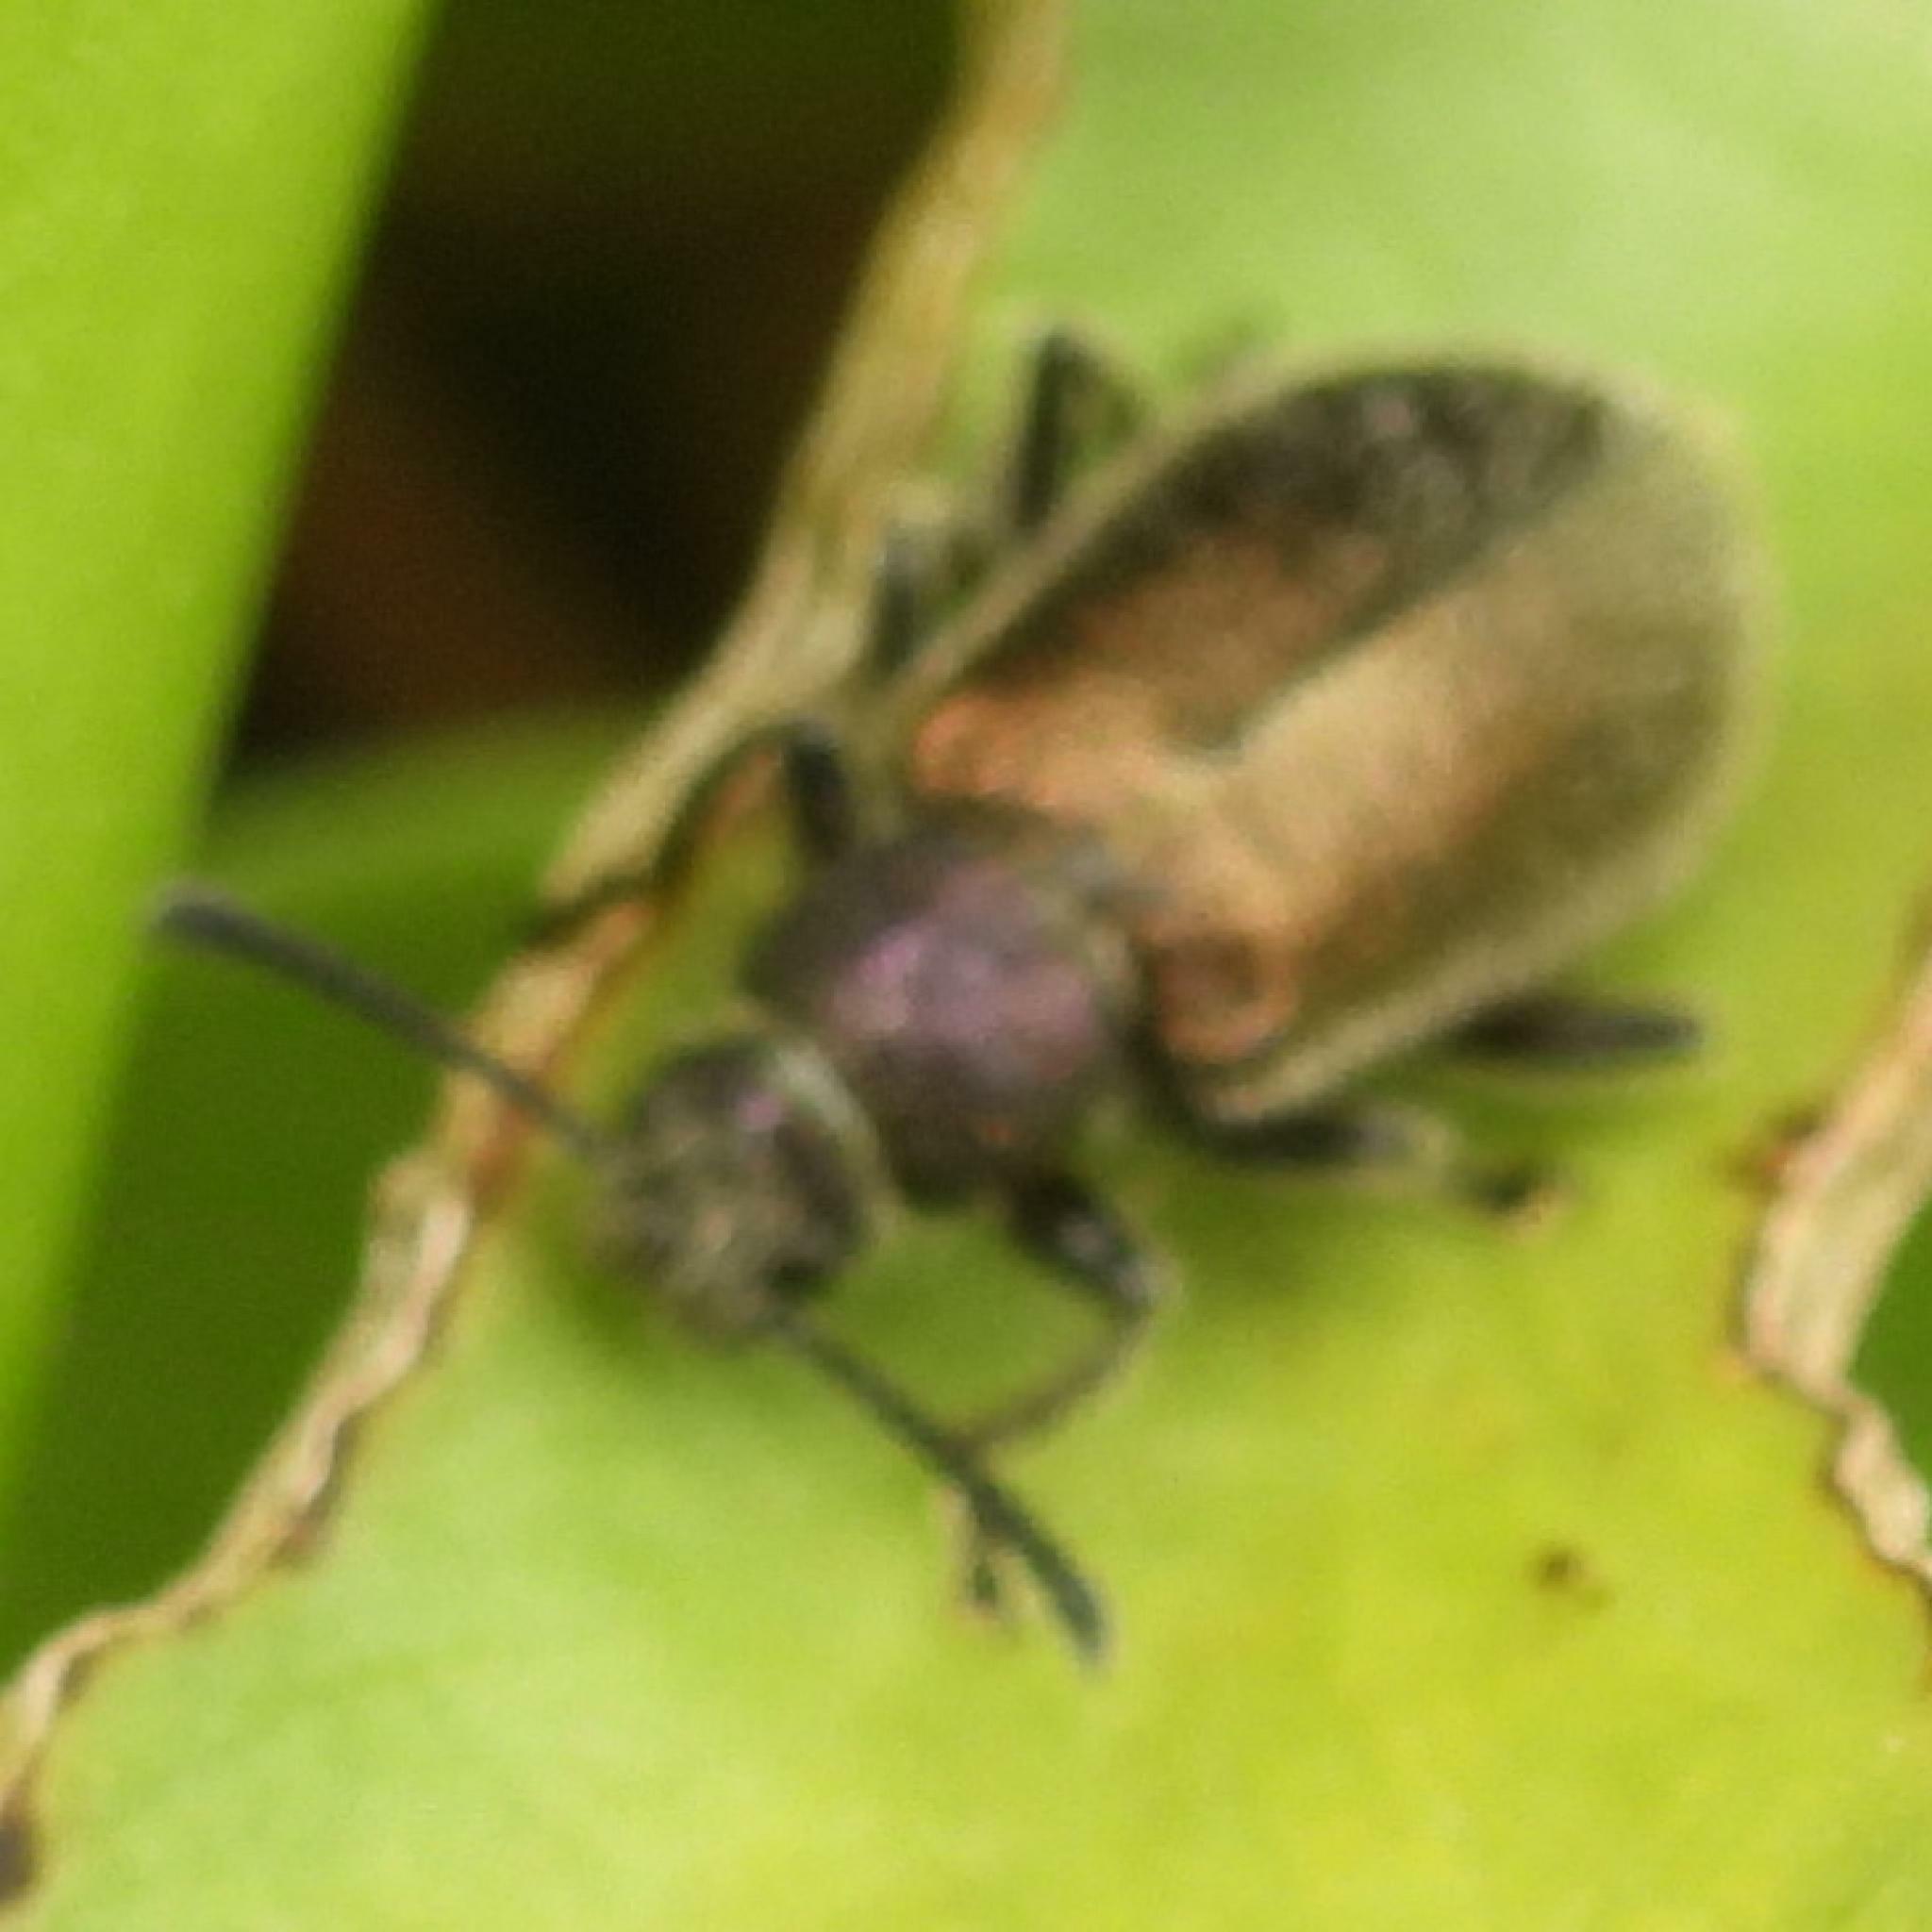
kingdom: Animalia
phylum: Arthropoda
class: Insecta
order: Coleoptera
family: Tenebrionidae
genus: Lagria
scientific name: Lagria villosa
